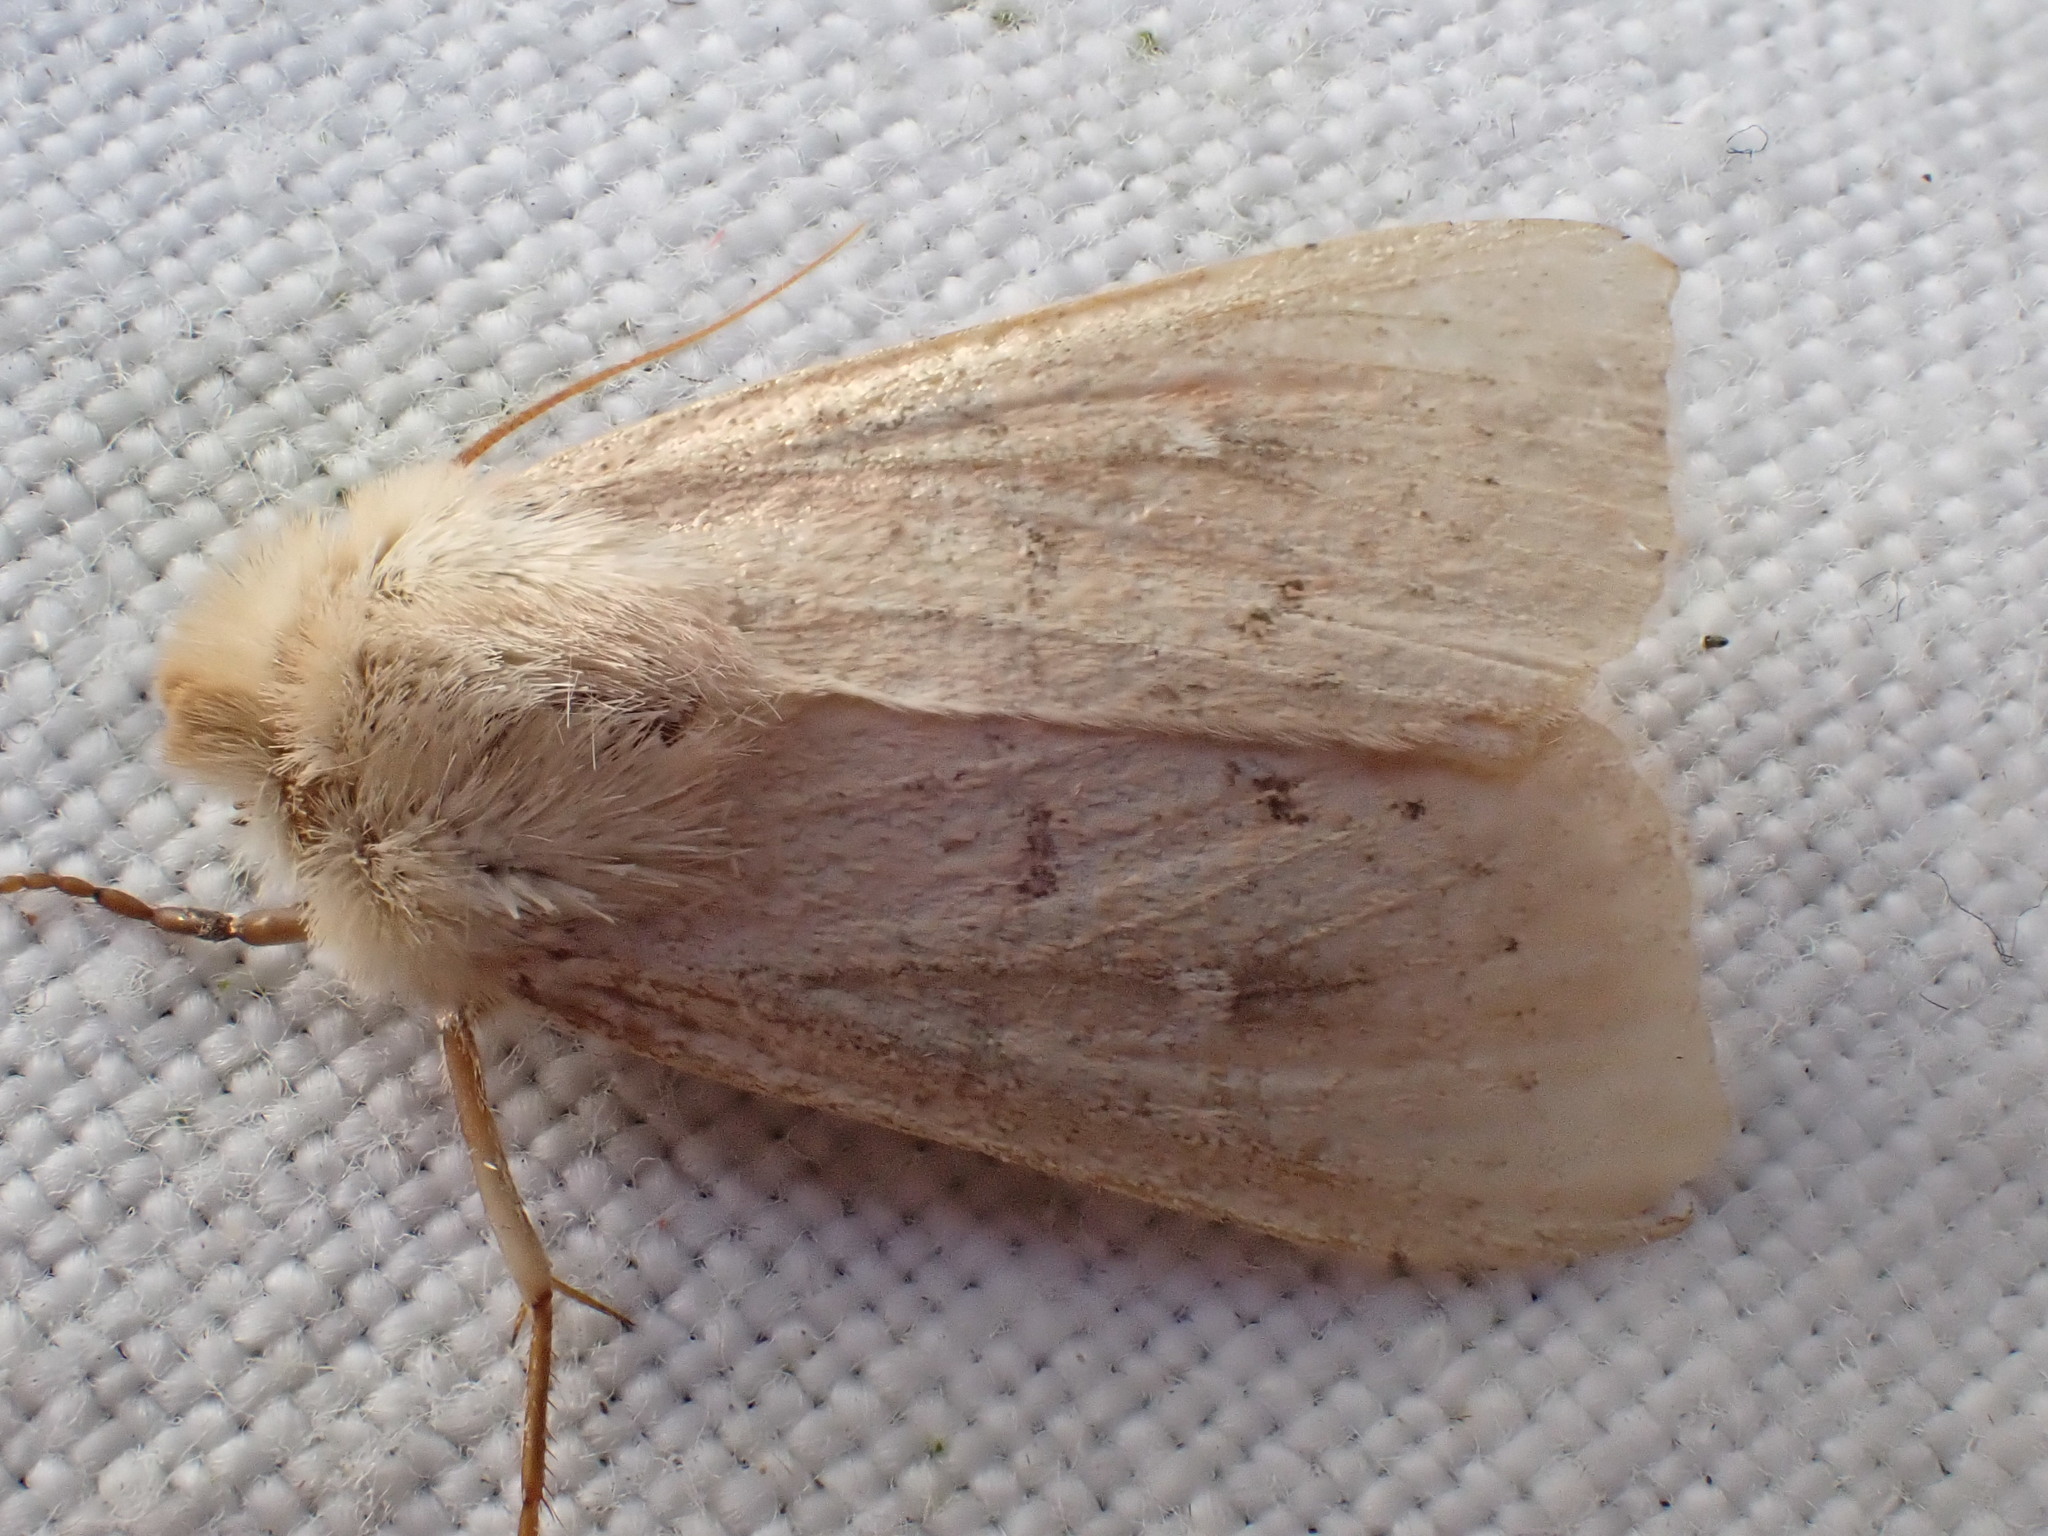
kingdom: Animalia
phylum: Arthropoda
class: Insecta
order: Lepidoptera
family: Noctuidae
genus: Mythimna
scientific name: Mythimna ferrago
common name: Clay
